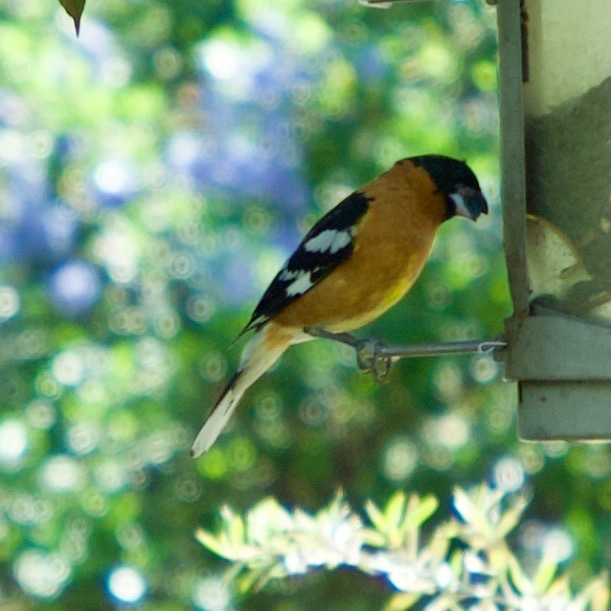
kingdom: Animalia
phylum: Chordata
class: Aves
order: Passeriformes
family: Cardinalidae
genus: Pheucticus
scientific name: Pheucticus melanocephalus
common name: Black-headed grosbeak
